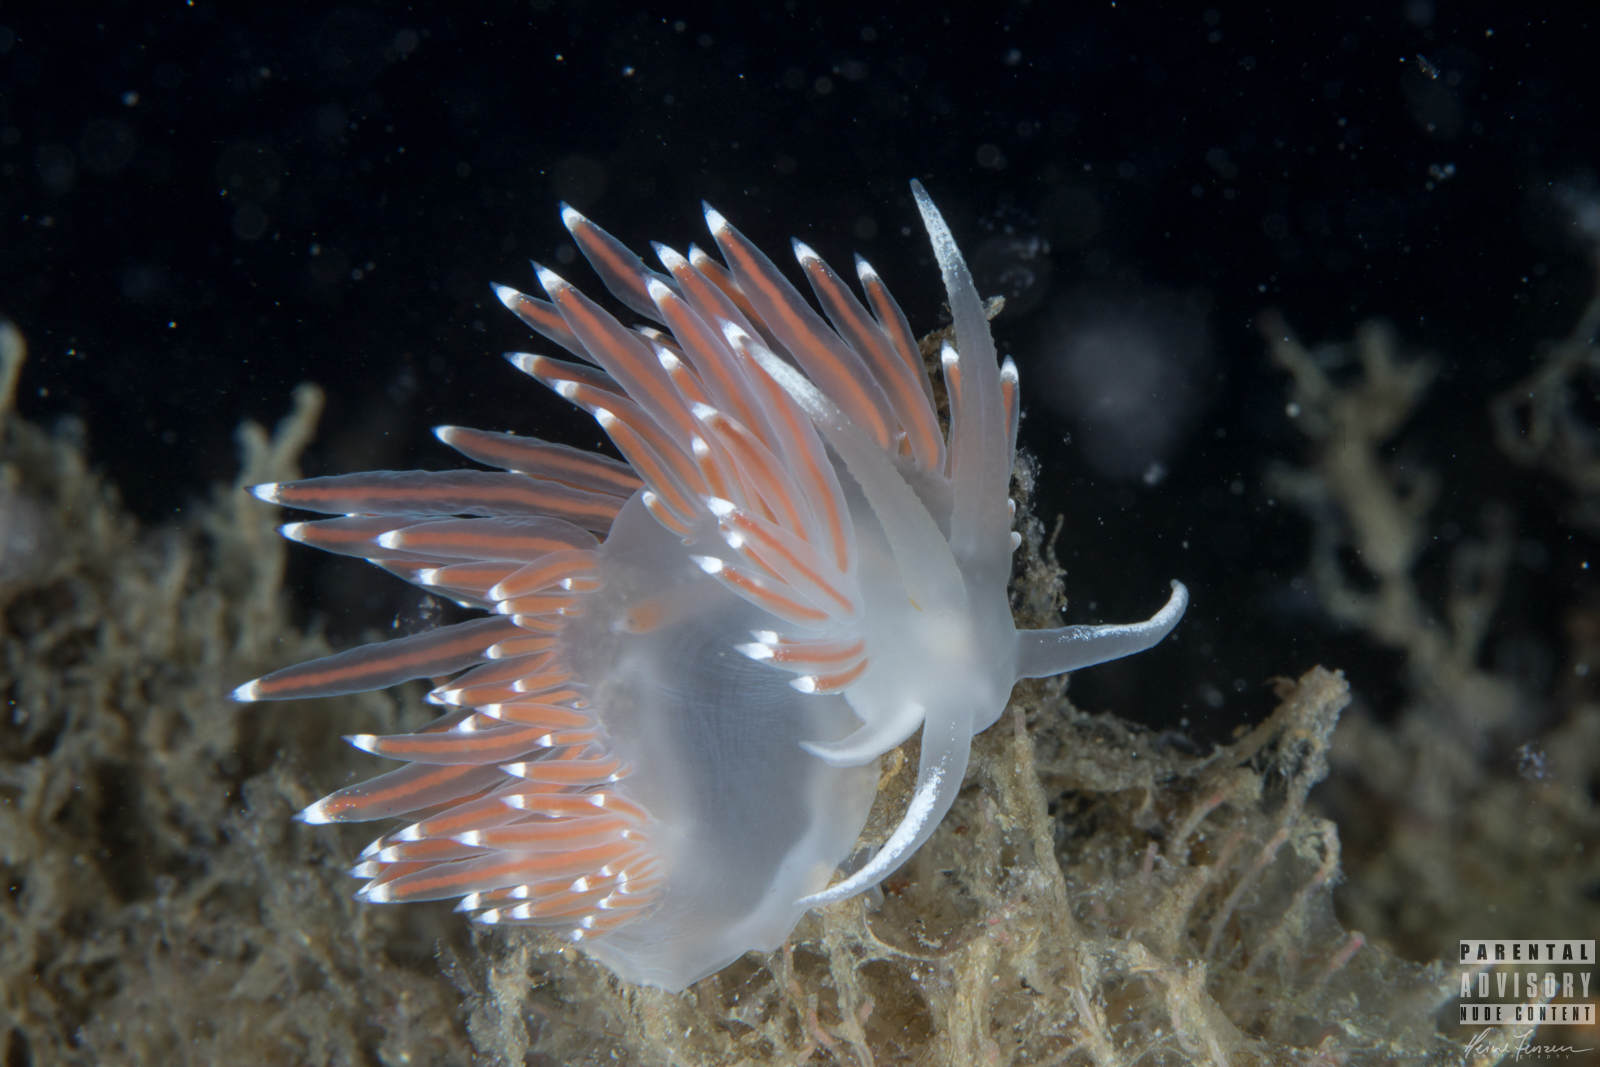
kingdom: Animalia
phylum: Mollusca
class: Gastropoda
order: Nudibranchia
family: Coryphellidae
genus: Coryphella
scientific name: Coryphella browni
